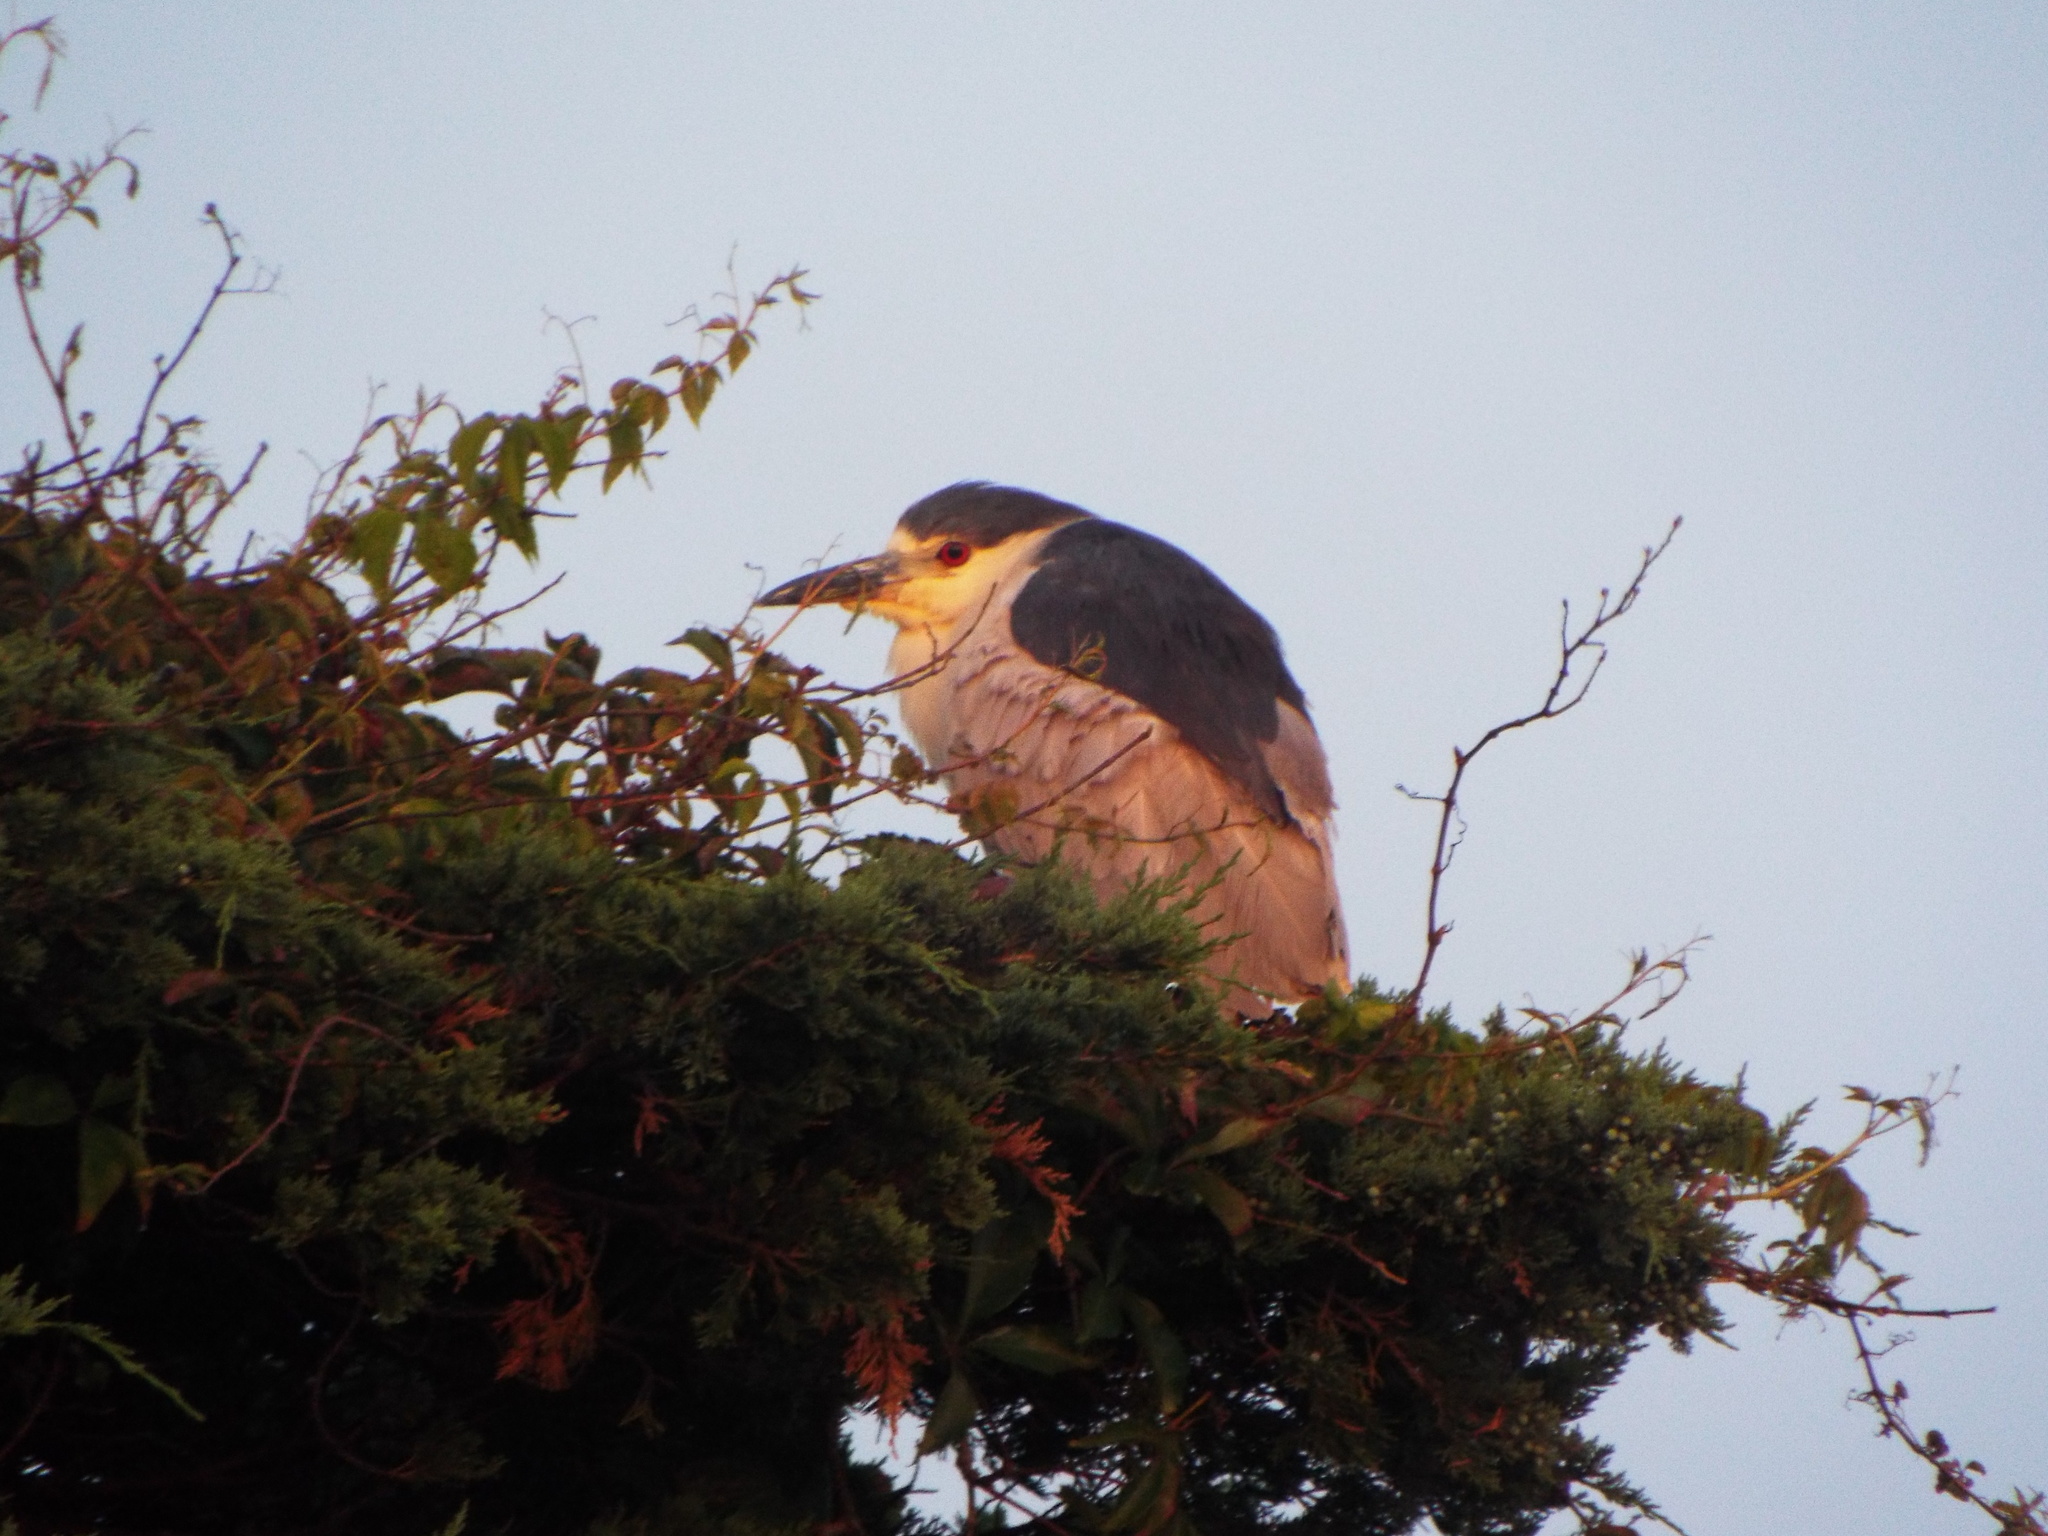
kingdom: Animalia
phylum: Chordata
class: Aves
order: Pelecaniformes
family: Ardeidae
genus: Nycticorax
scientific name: Nycticorax nycticorax
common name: Black-crowned night heron
